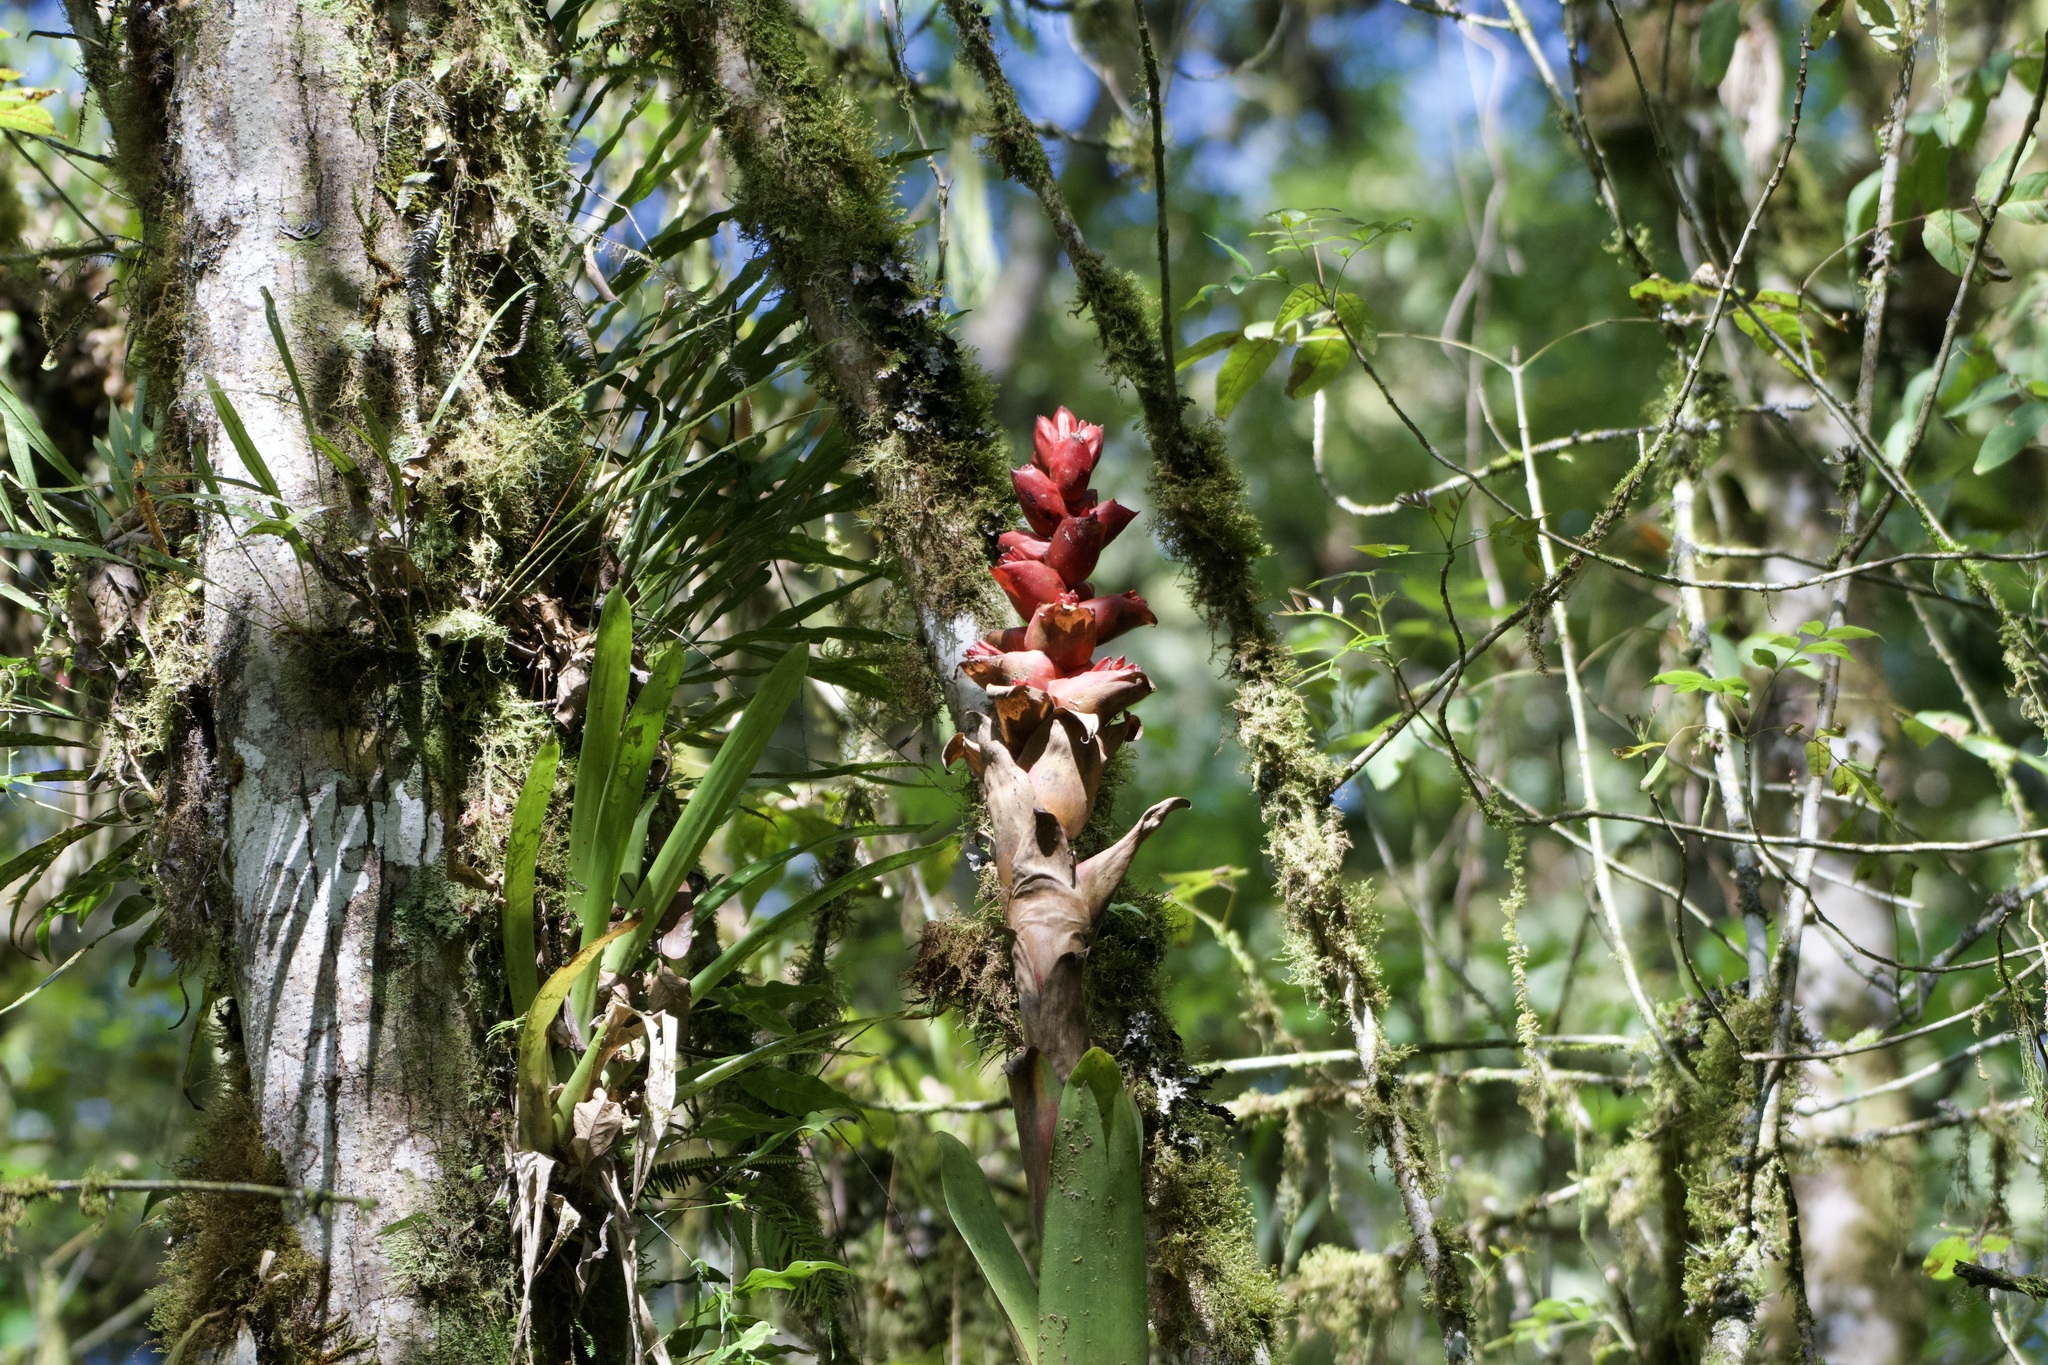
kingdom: Plantae
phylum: Tracheophyta
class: Liliopsida
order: Poales
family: Bromeliaceae
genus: Cipuropsis
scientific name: Cipuropsis capituligera
